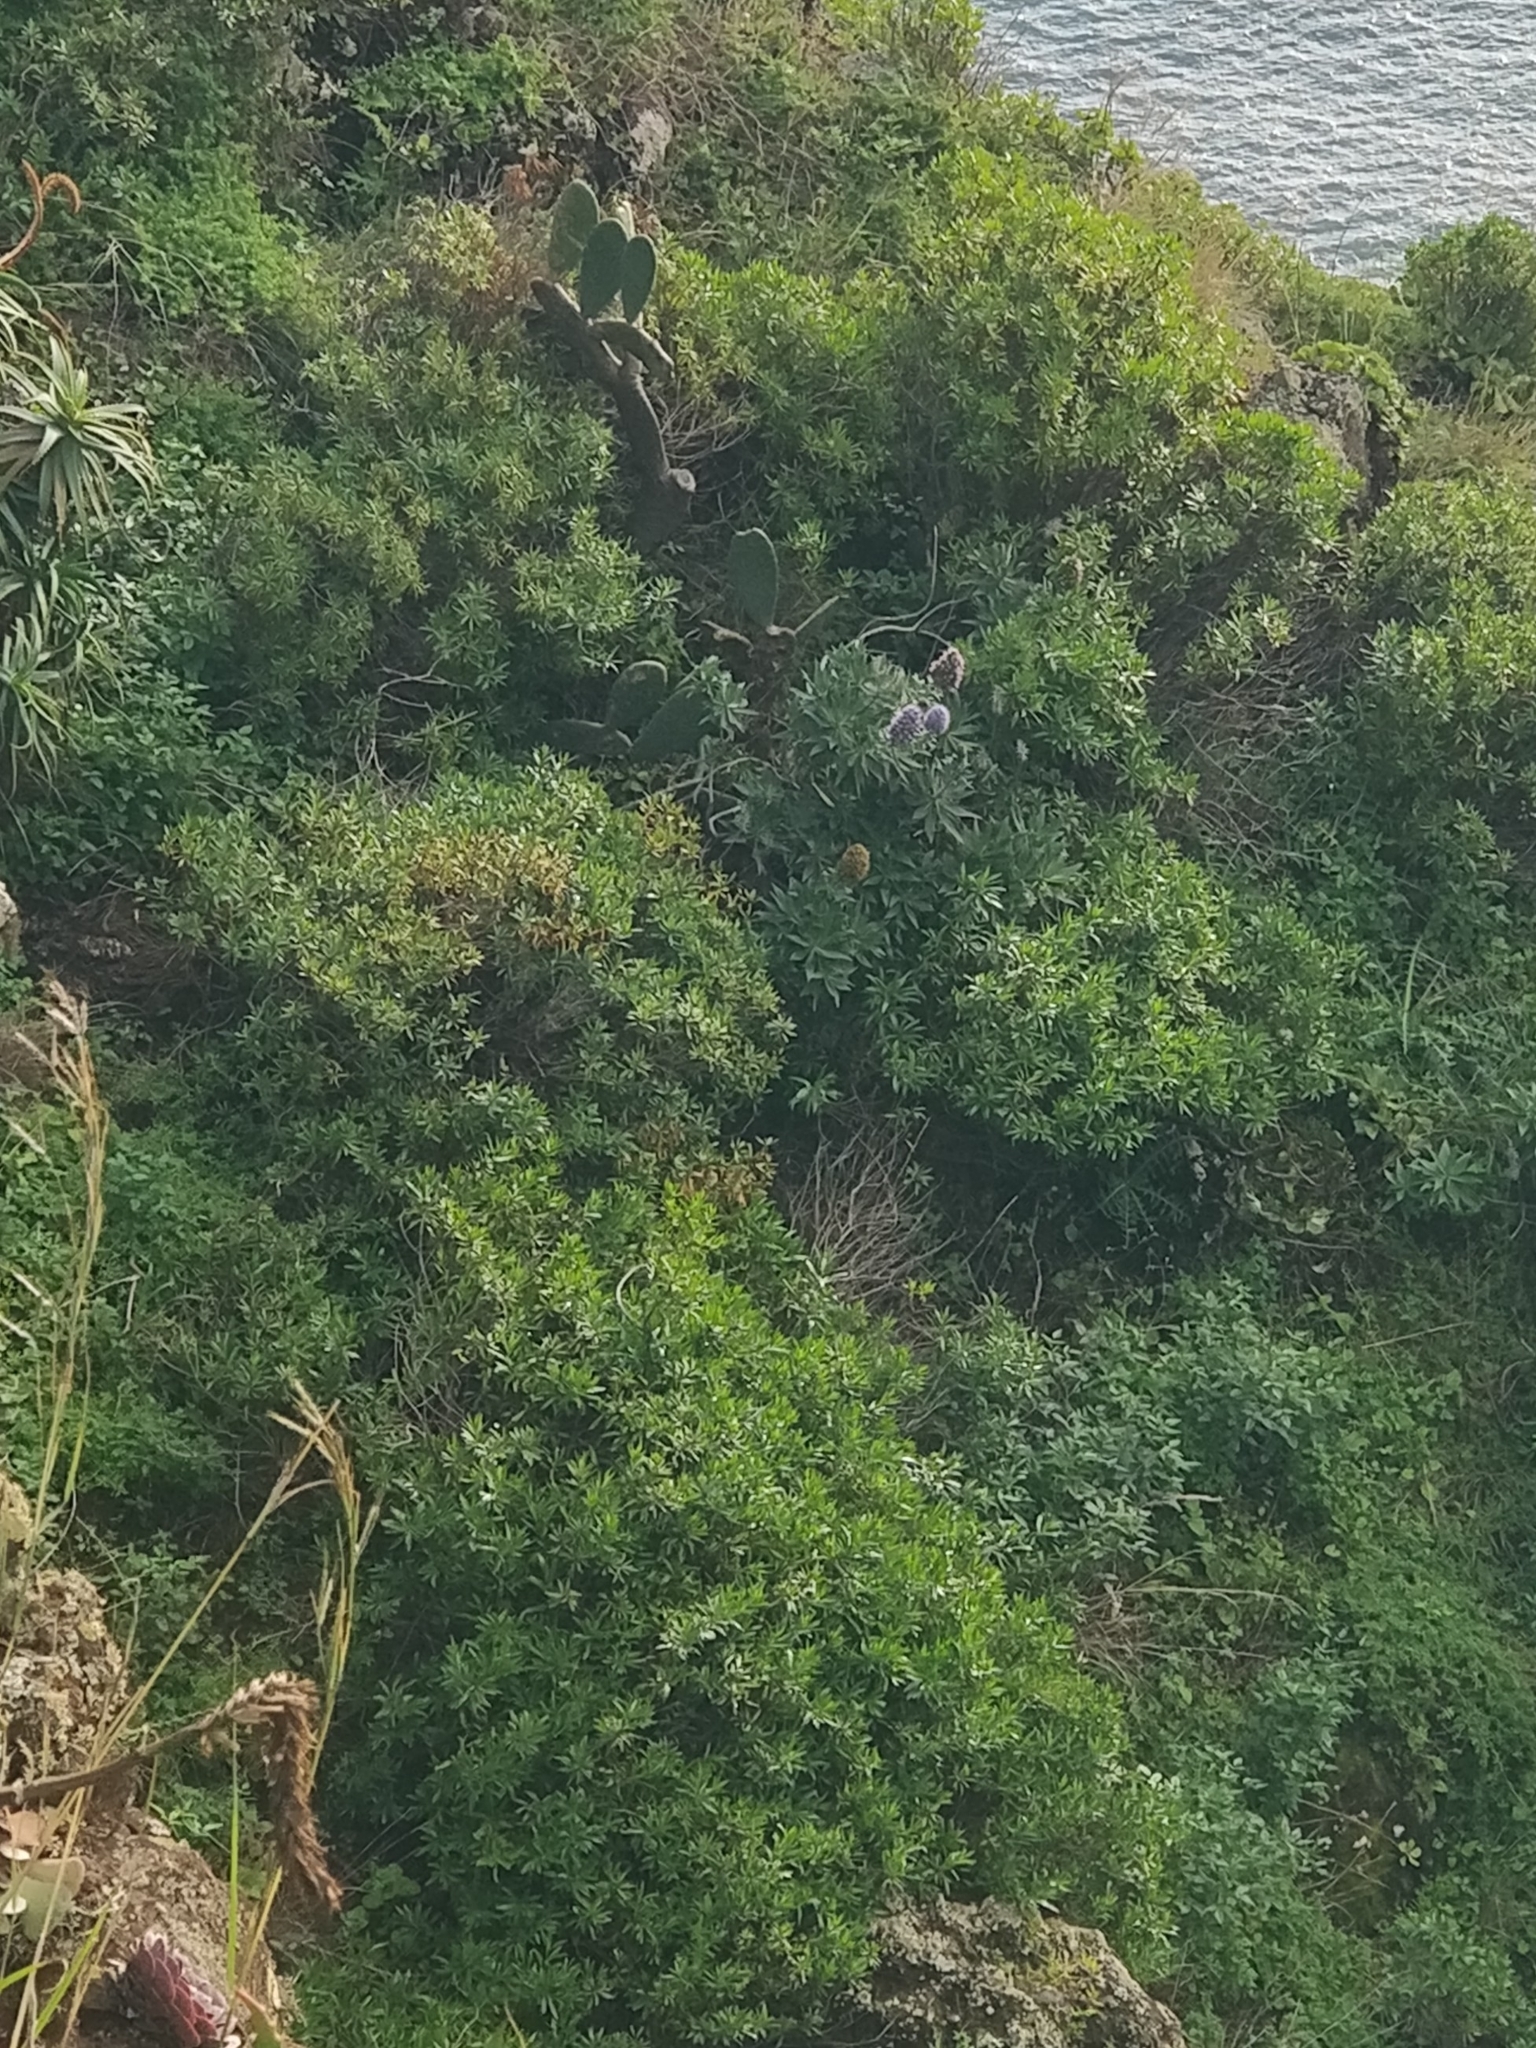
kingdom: Plantae
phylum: Tracheophyta
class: Magnoliopsida
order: Lamiales
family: Plantaginaceae
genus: Globularia
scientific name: Globularia salicina
